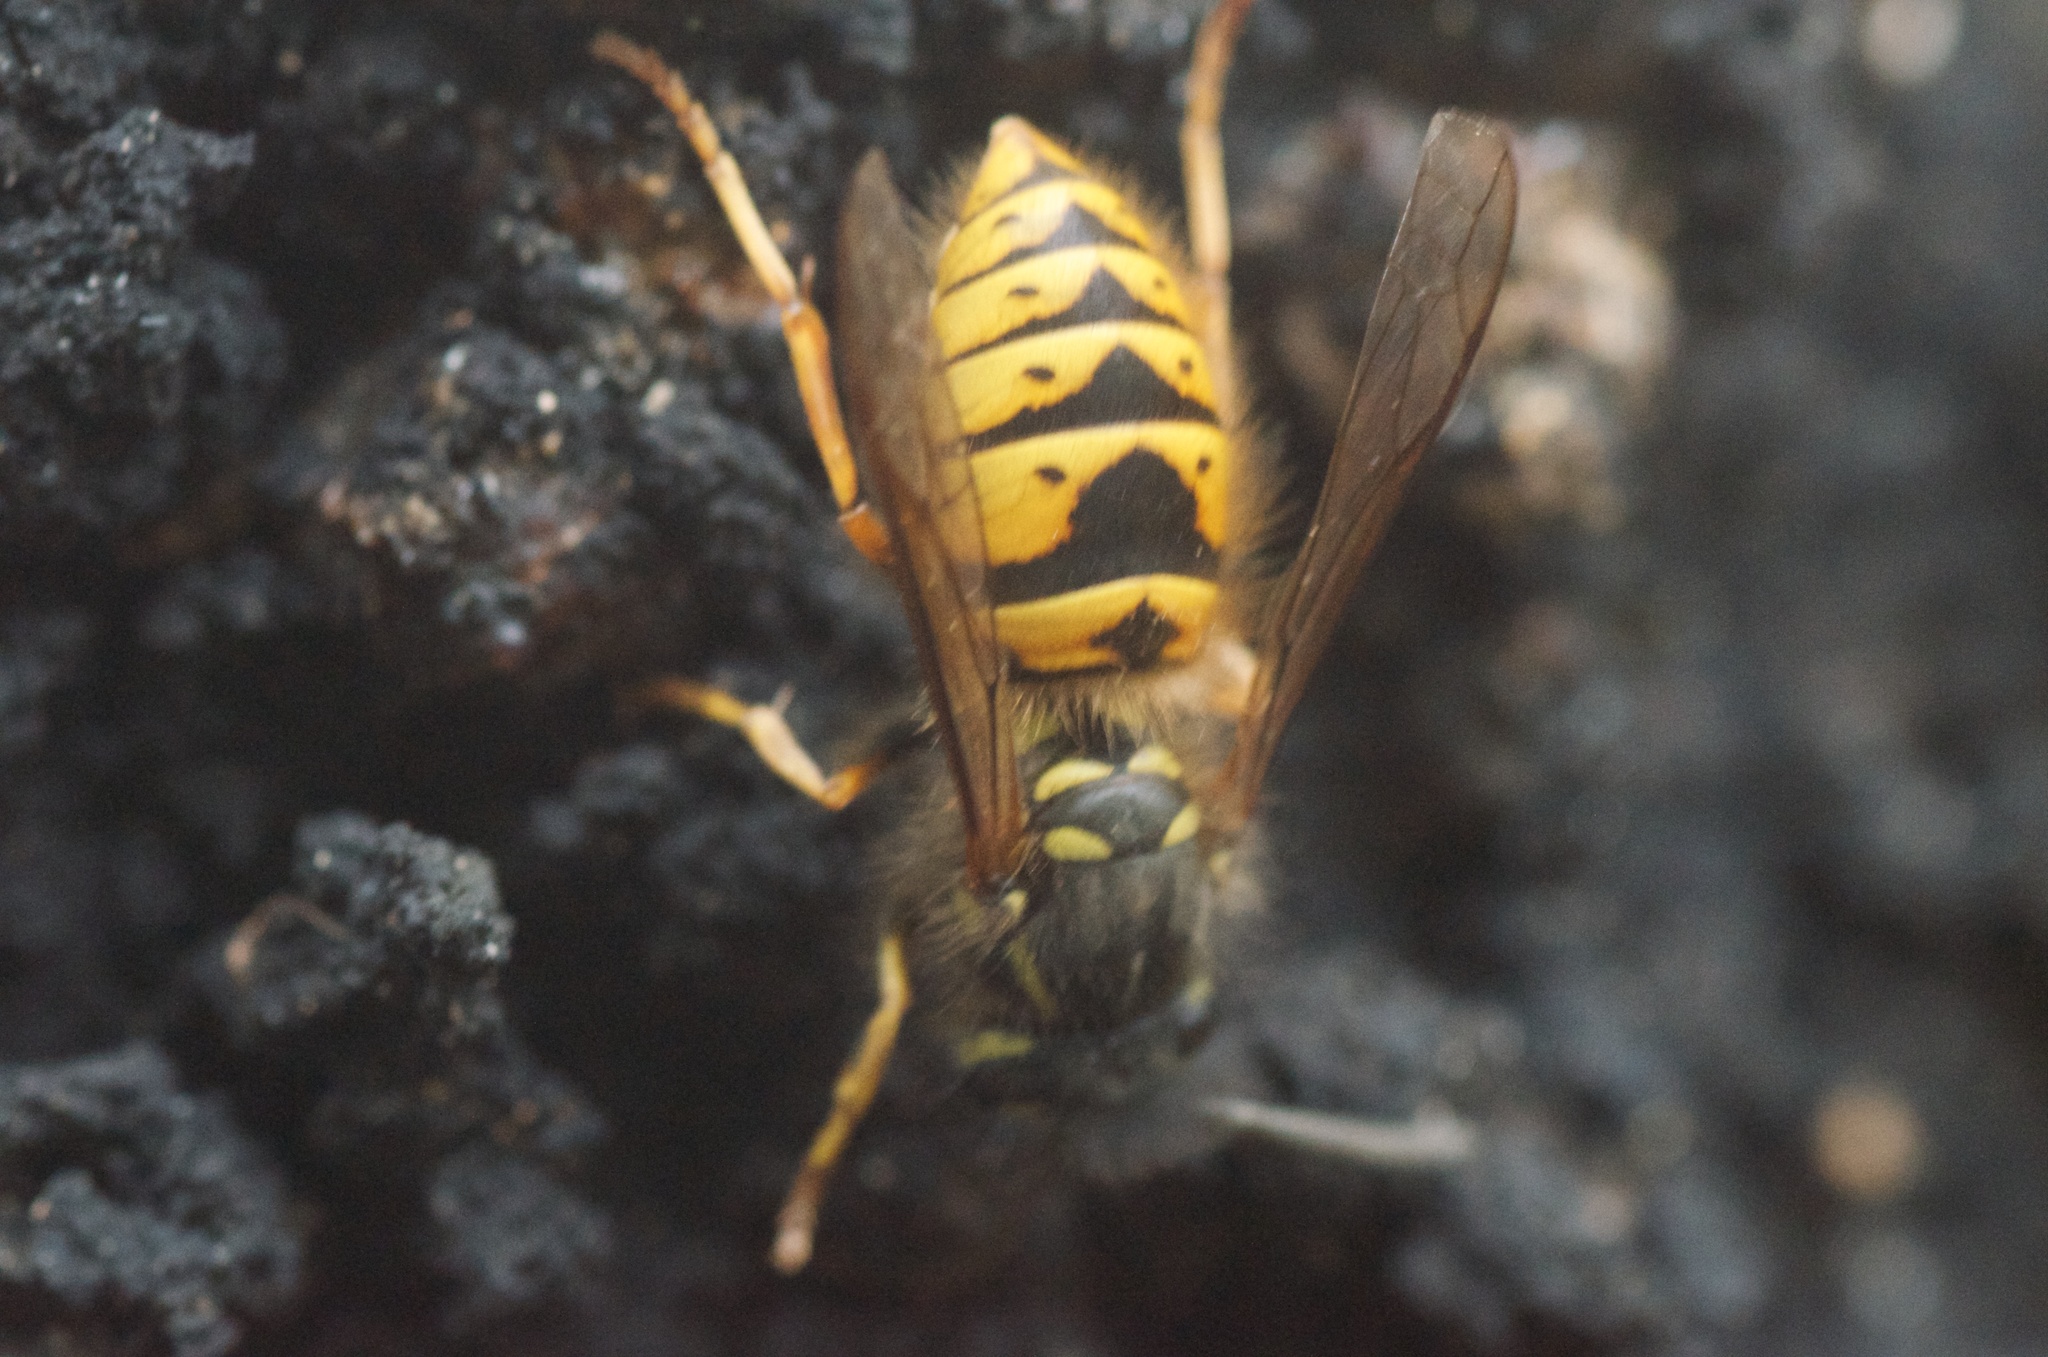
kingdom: Animalia
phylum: Arthropoda
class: Insecta
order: Hymenoptera
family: Vespidae
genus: Vespula
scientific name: Vespula vulgaris
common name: Common wasp
